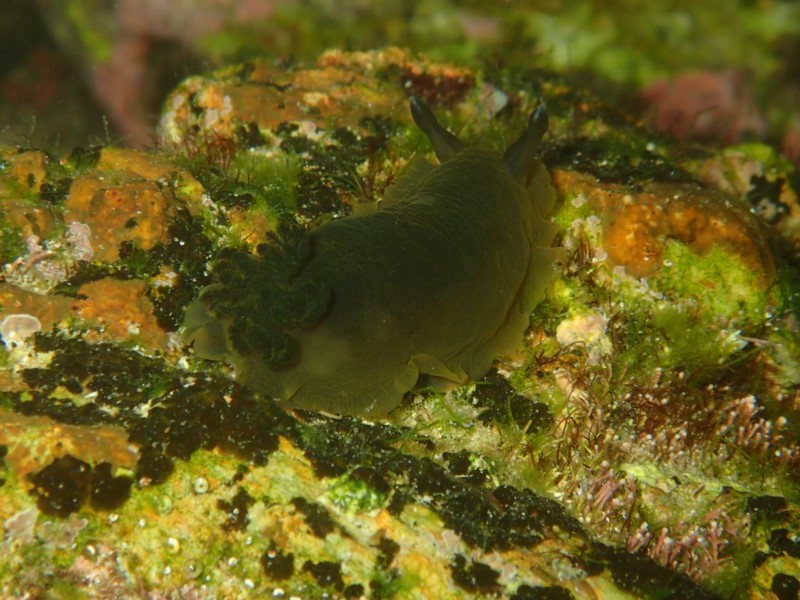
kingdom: Animalia
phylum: Mollusca
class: Gastropoda
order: Nudibranchia
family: Dendrodorididae
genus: Dendrodoris
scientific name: Dendrodoris nigra
